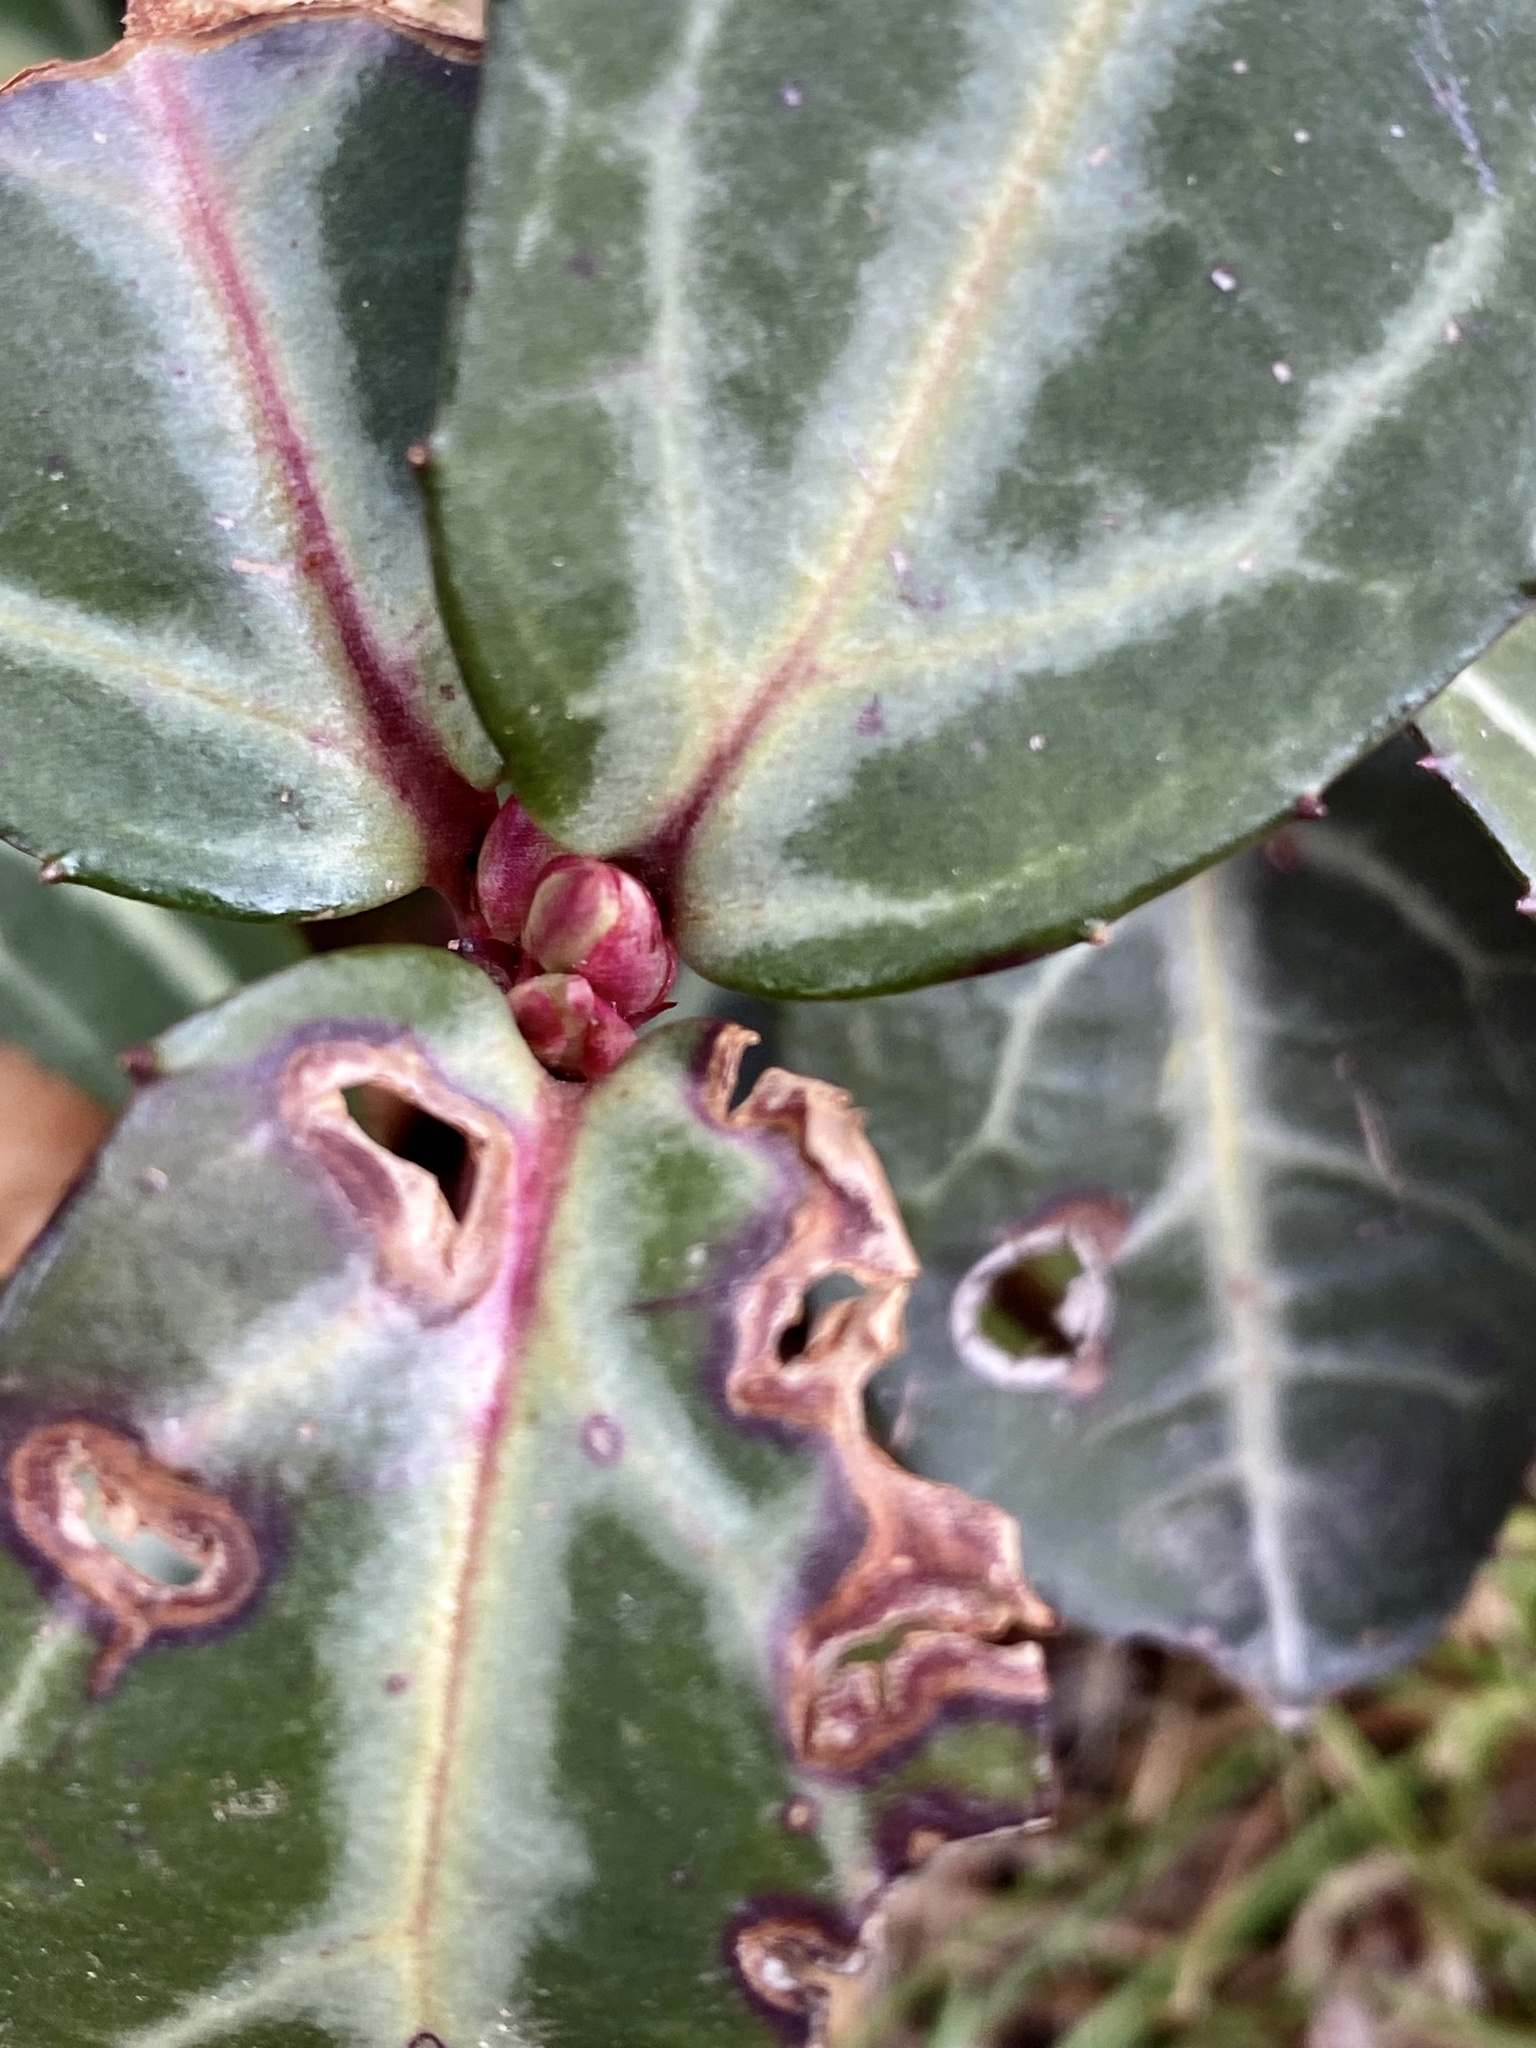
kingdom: Plantae
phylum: Tracheophyta
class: Magnoliopsida
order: Ericales
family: Ericaceae
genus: Chimaphila
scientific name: Chimaphila maculata
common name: Spotted pipsissewa
